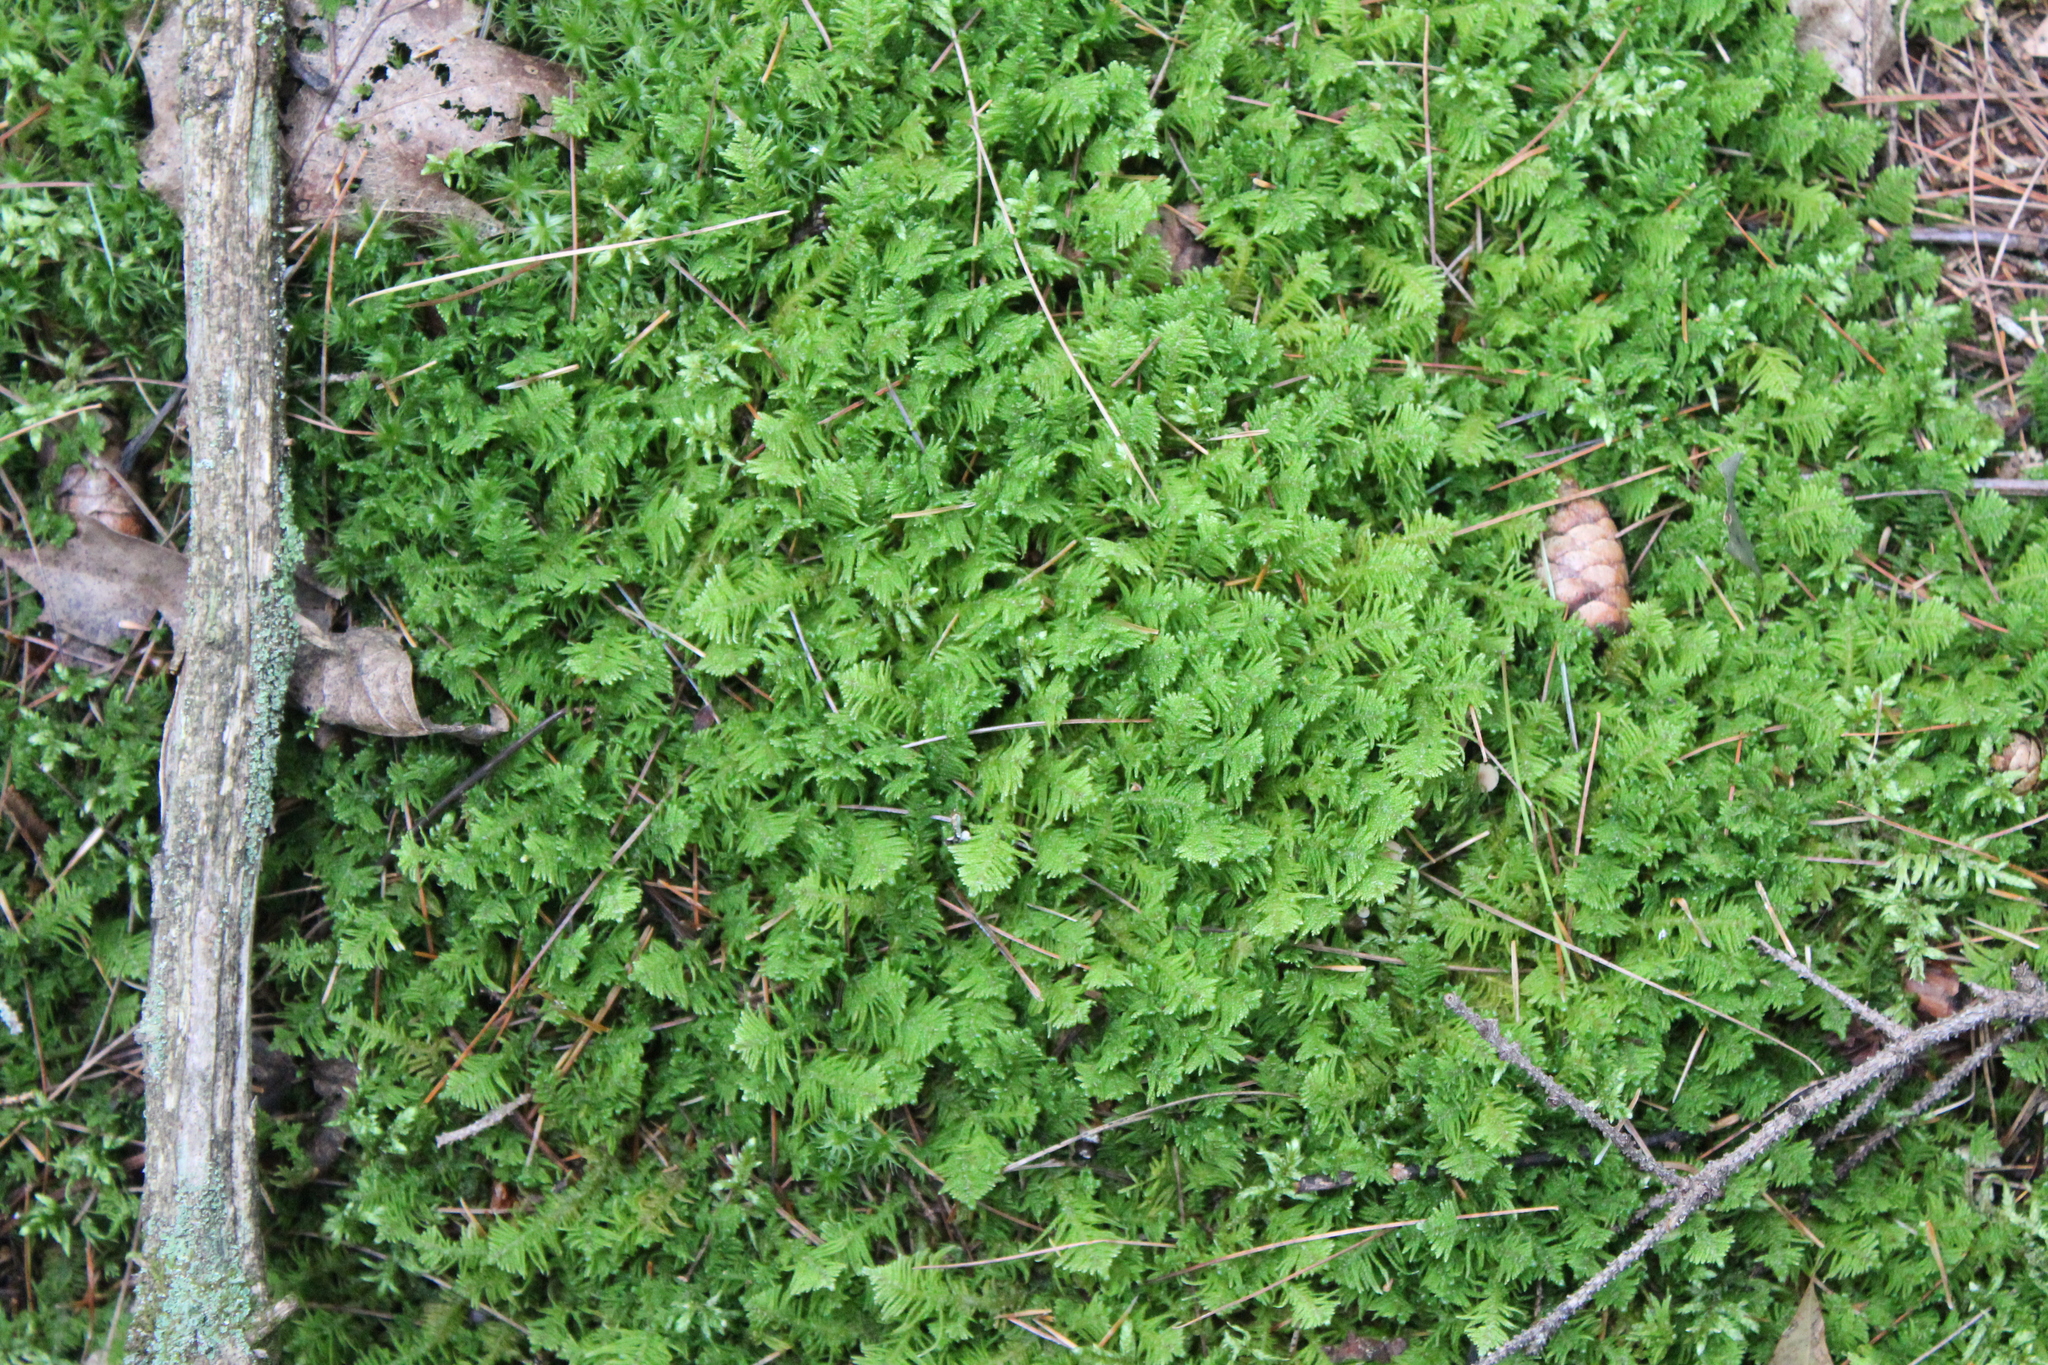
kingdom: Plantae
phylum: Bryophyta
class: Bryopsida
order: Hypnales
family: Pylaisiaceae
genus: Ptilium
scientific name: Ptilium crista-castrensis
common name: Knight's plume moss
